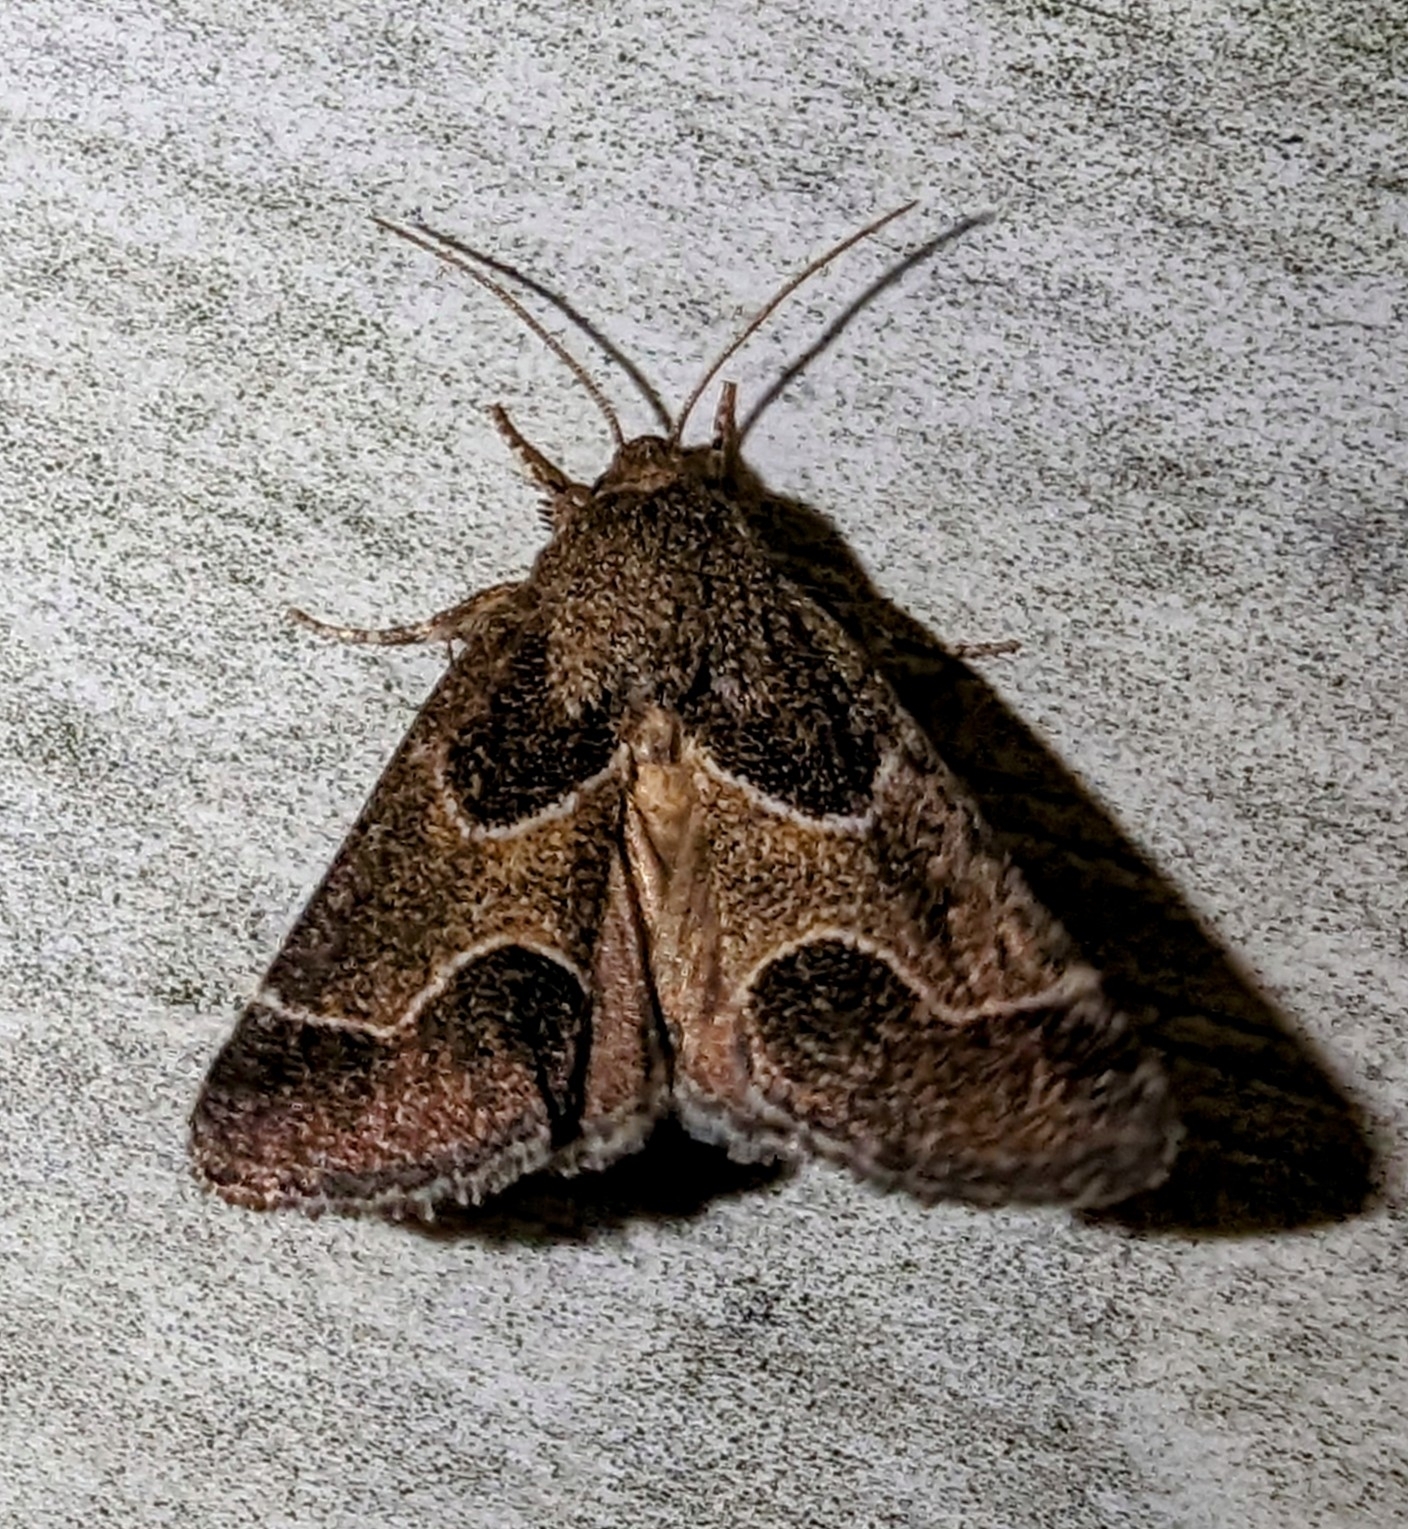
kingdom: Animalia
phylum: Arthropoda
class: Insecta
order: Lepidoptera
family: Noctuidae
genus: Schinia
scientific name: Schinia rivulosa
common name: Scarce meal-moth
